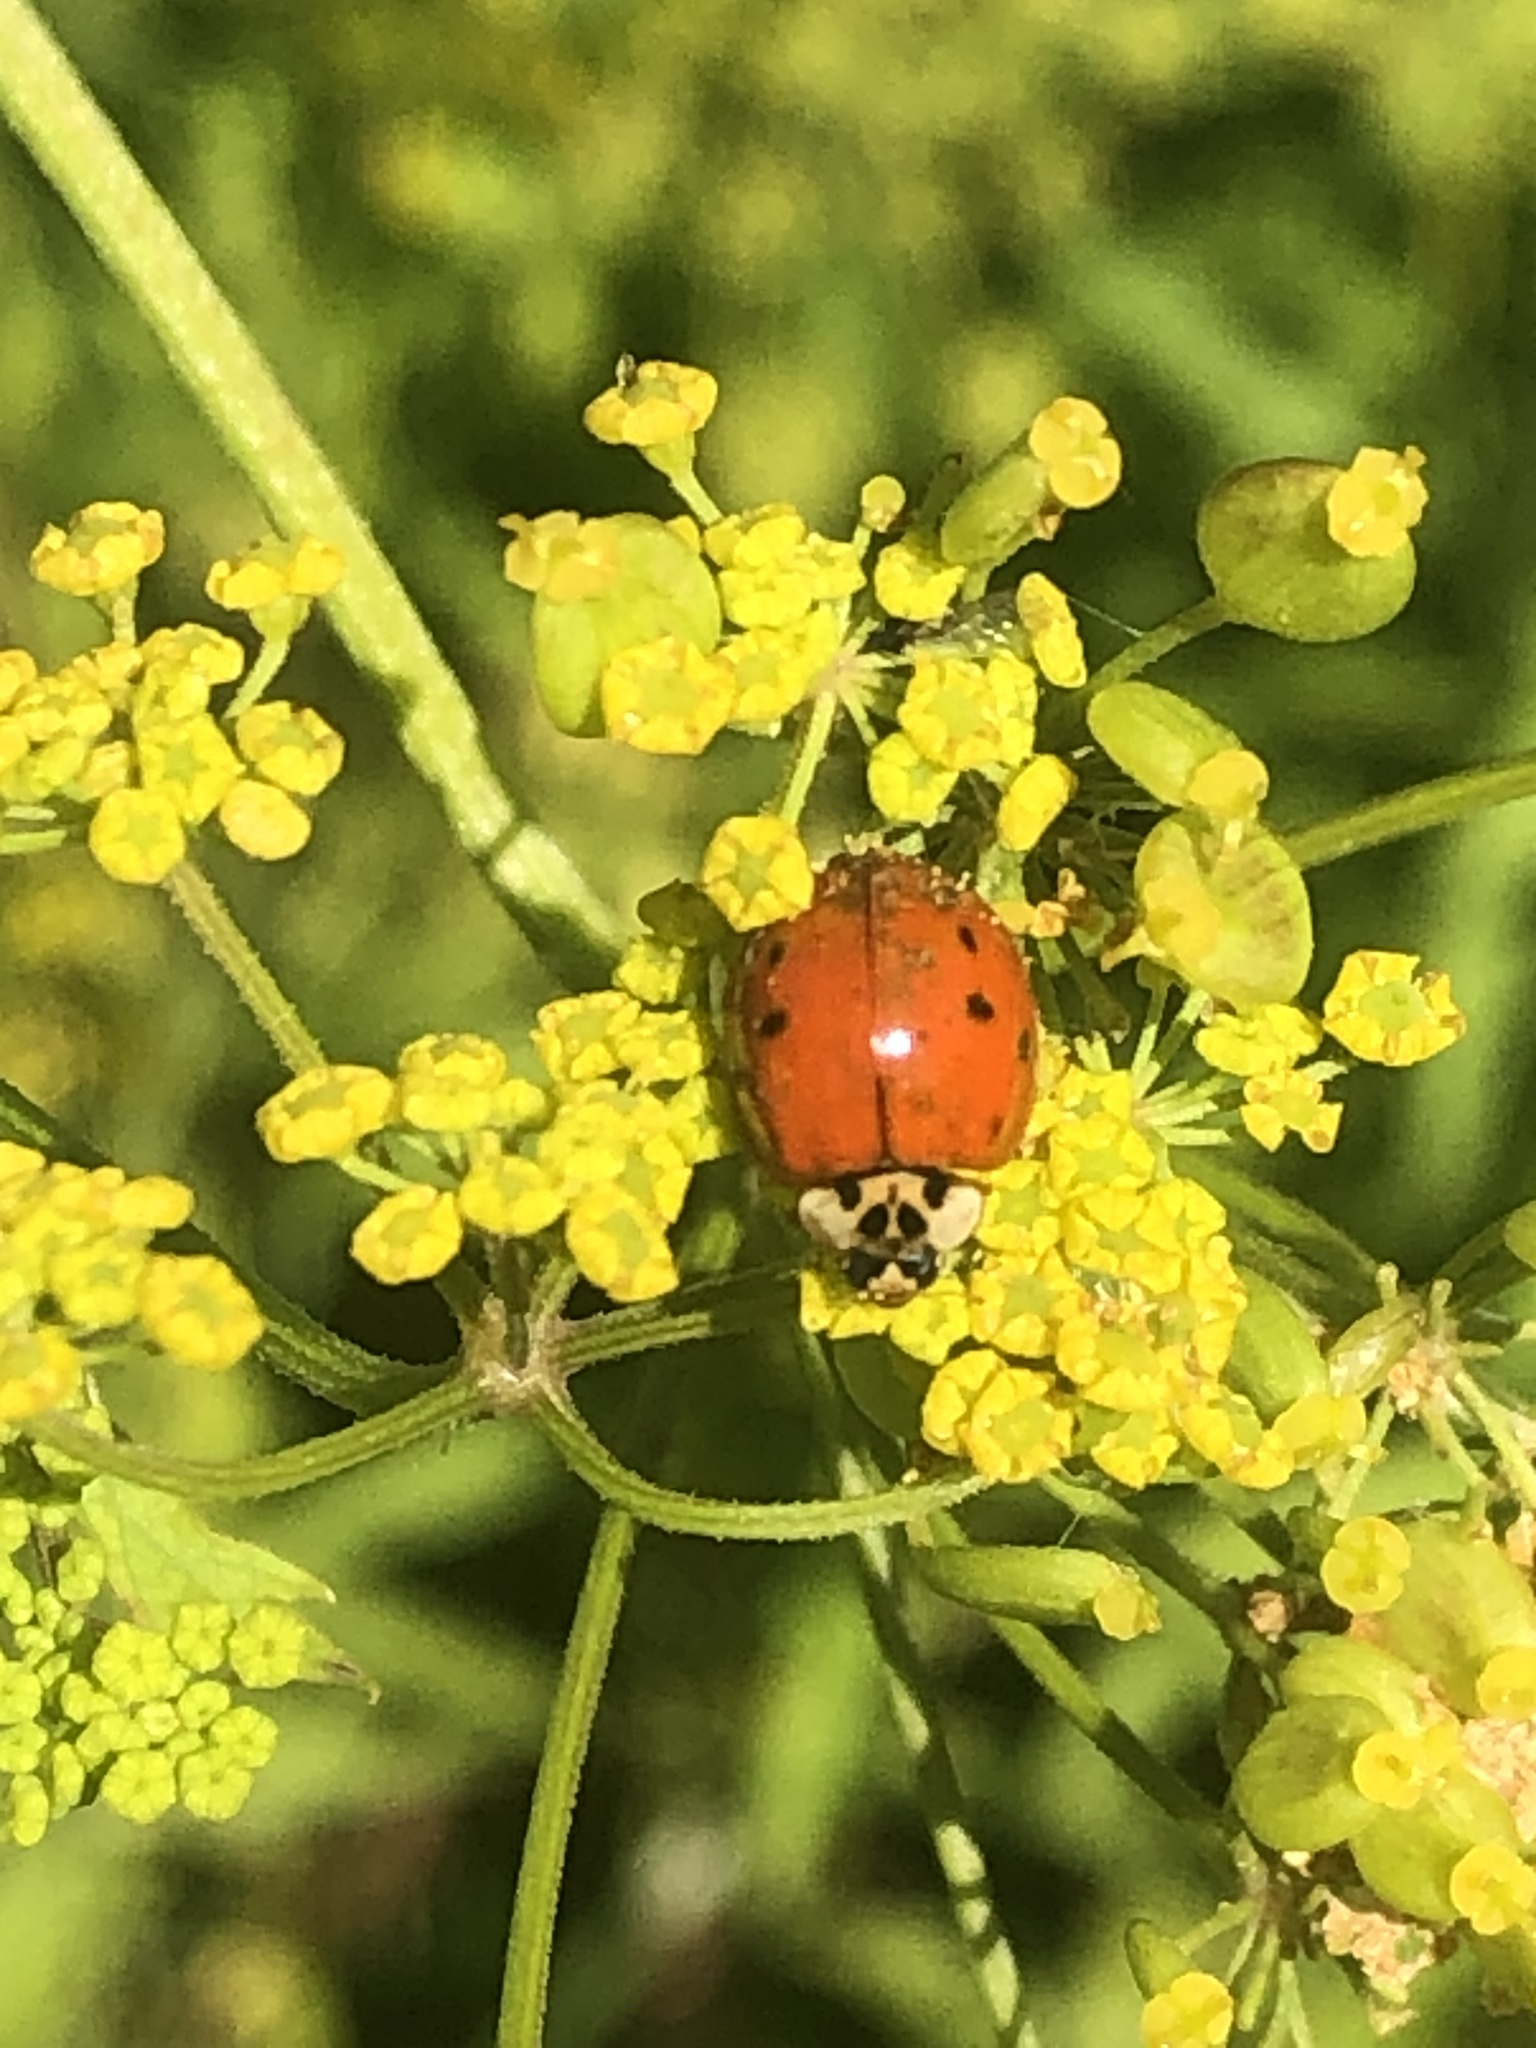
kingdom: Animalia
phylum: Arthropoda
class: Insecta
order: Coleoptera
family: Coccinellidae
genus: Harmonia
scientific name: Harmonia axyridis
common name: Harlequin ladybird
